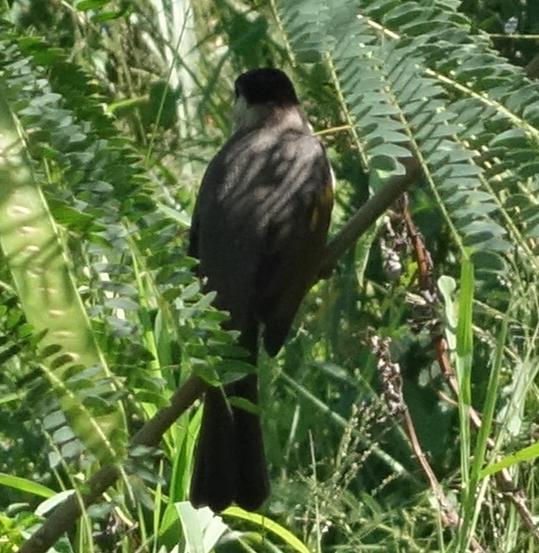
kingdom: Animalia
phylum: Chordata
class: Aves
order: Passeriformes
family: Pycnonotidae
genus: Pycnonotus
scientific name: Pycnonotus taivanus
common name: Styan's bulbul
